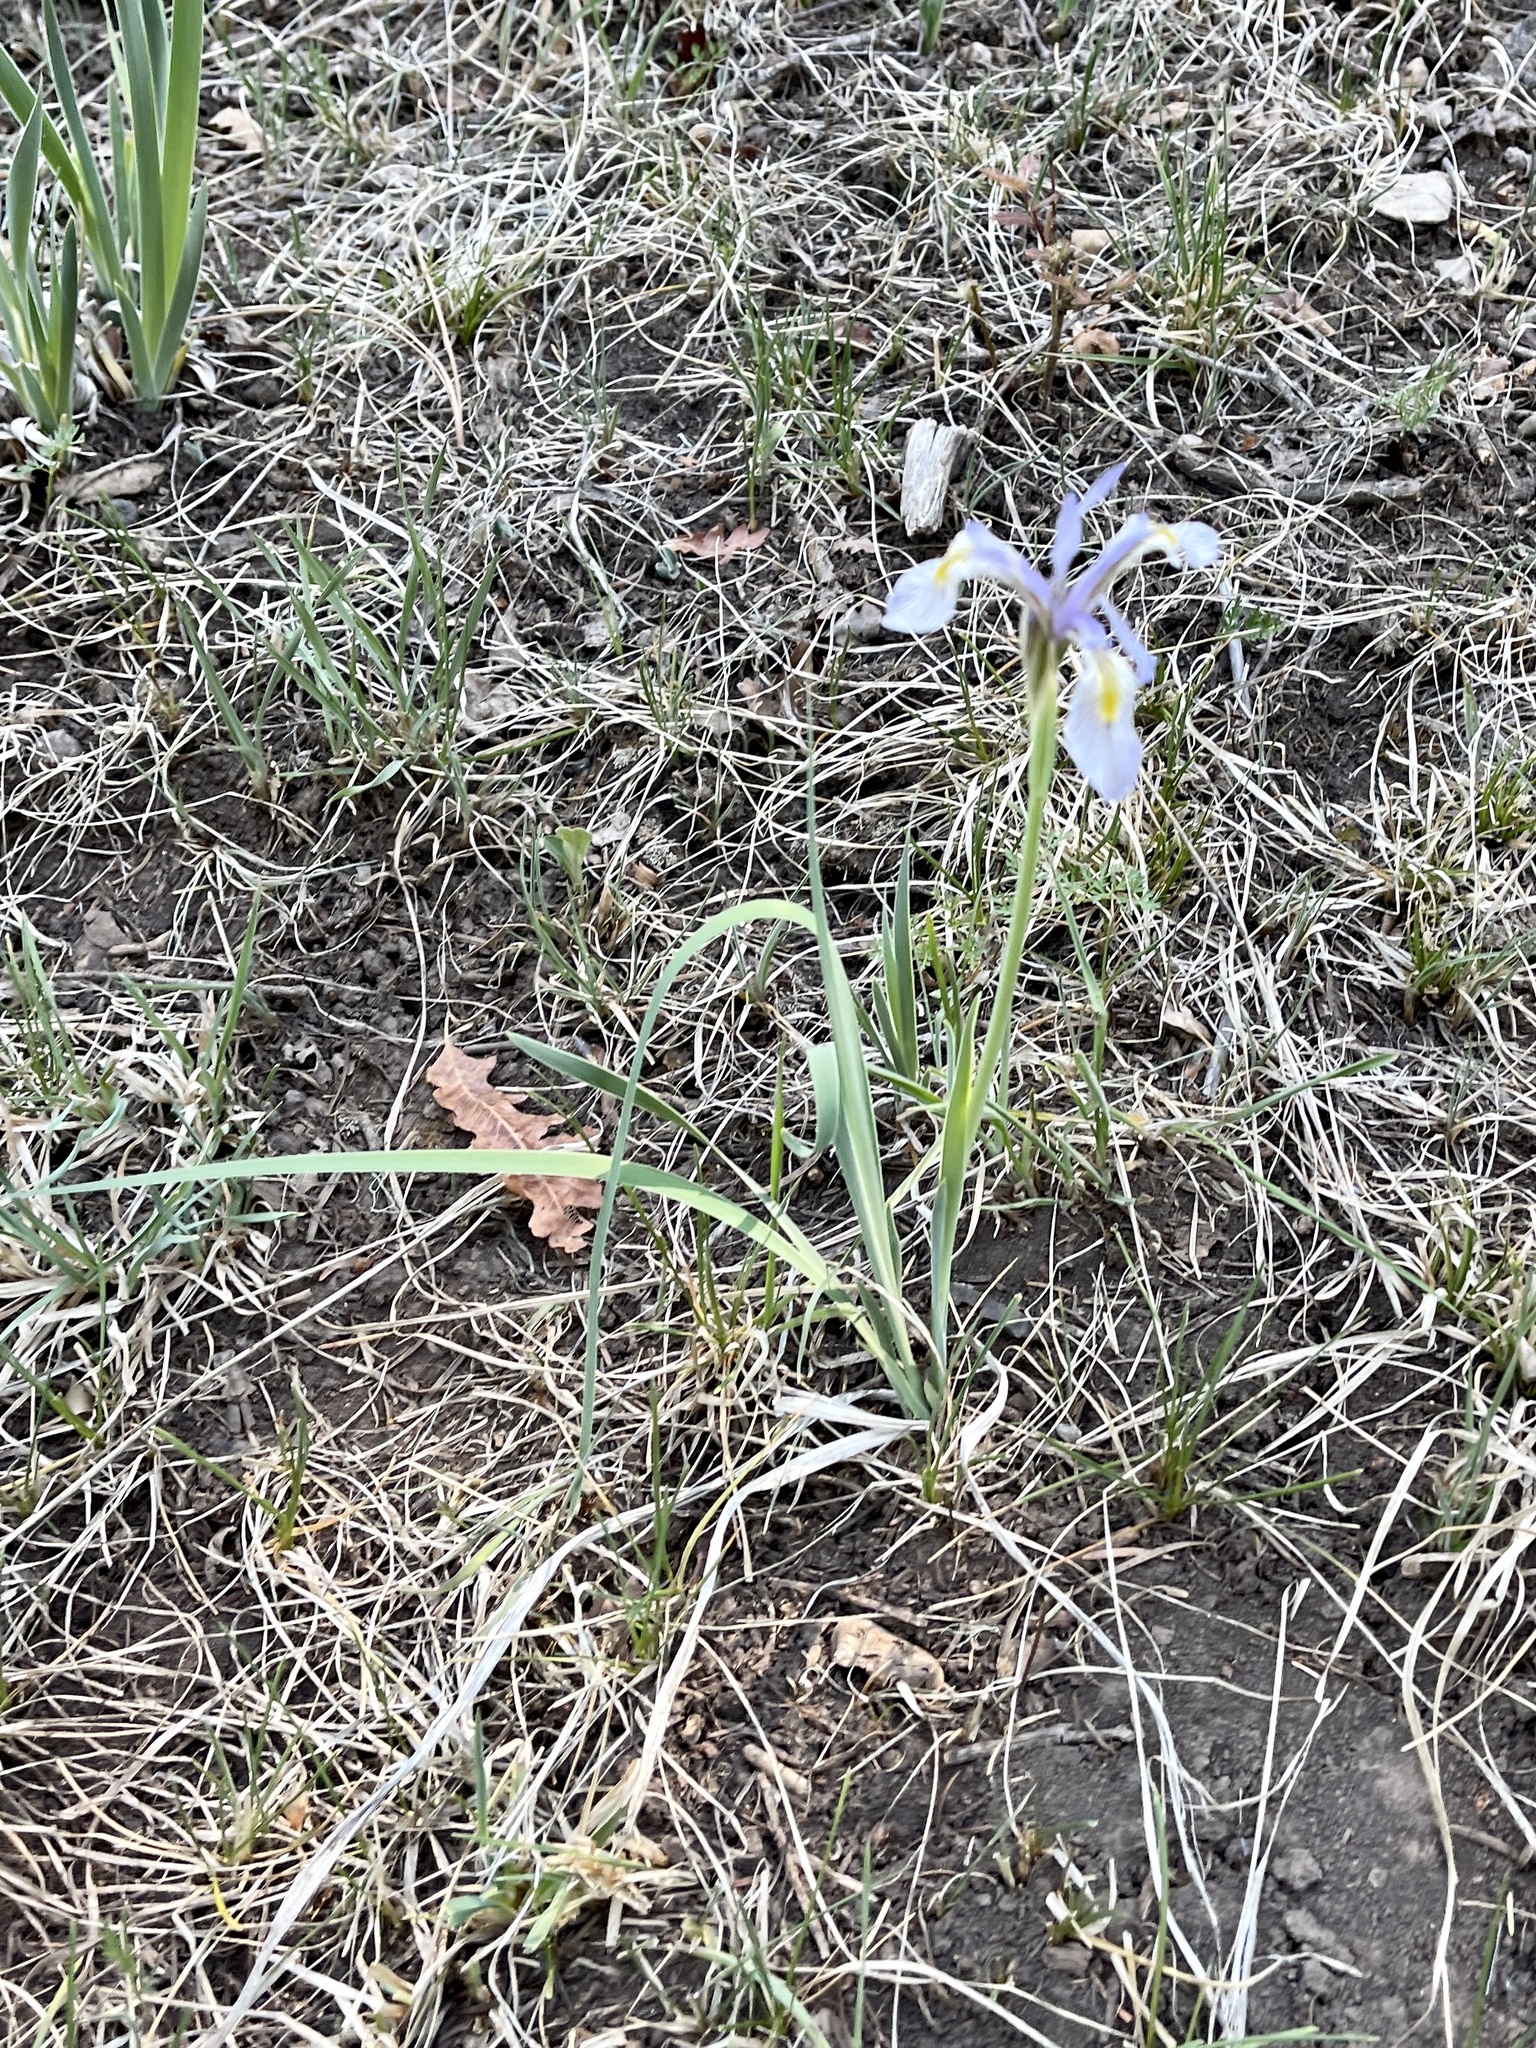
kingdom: Plantae
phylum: Tracheophyta
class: Liliopsida
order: Asparagales
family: Iridaceae
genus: Iris
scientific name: Iris missouriensis
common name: Rocky mountain iris
